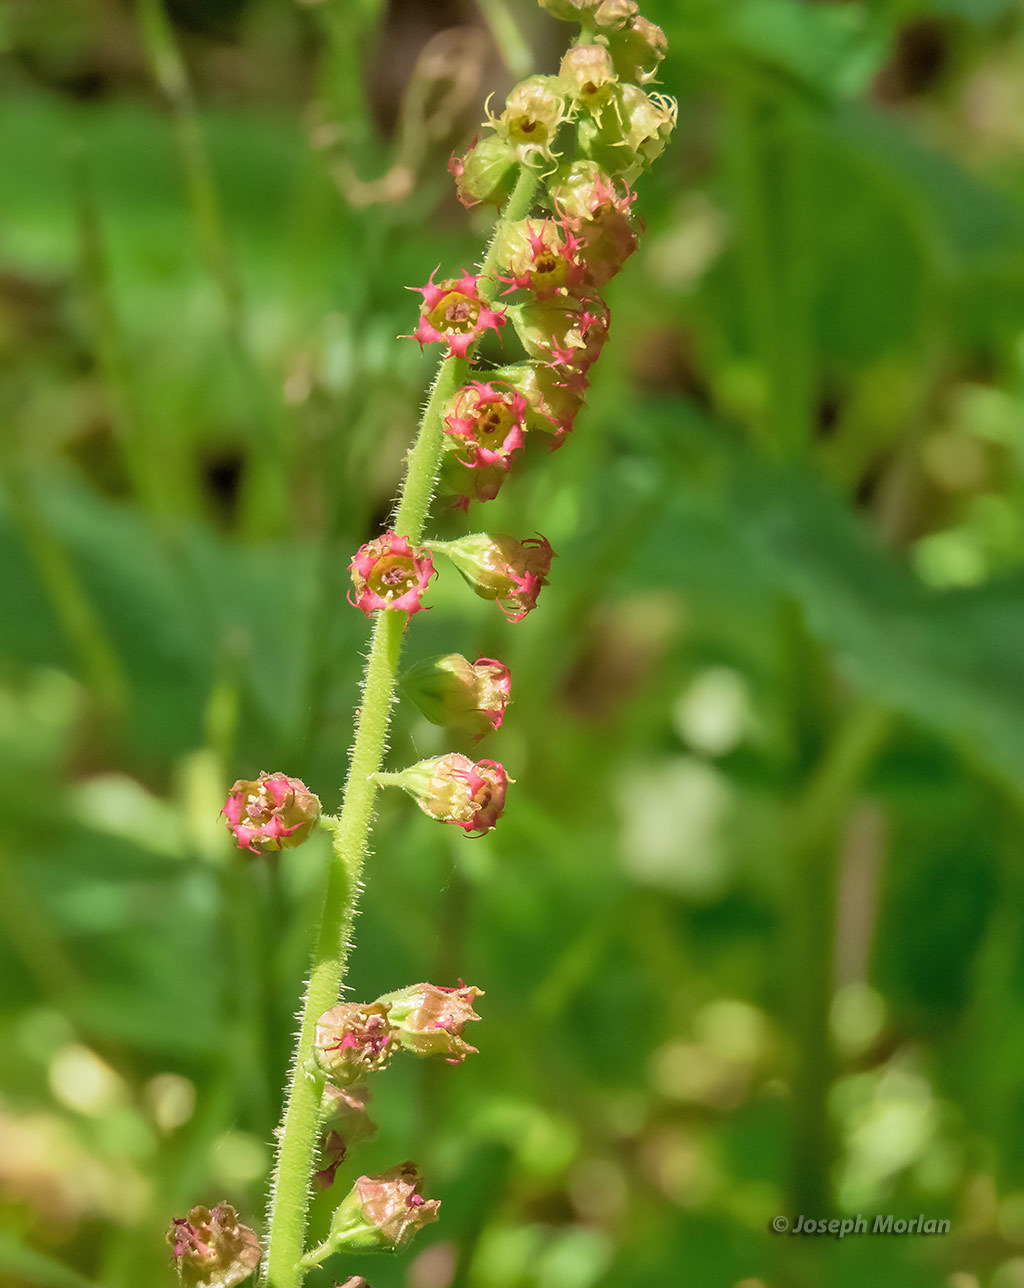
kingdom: Plantae
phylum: Tracheophyta
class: Magnoliopsida
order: Saxifragales
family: Saxifragaceae
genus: Tellima
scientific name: Tellima grandiflora
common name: Fringecups
